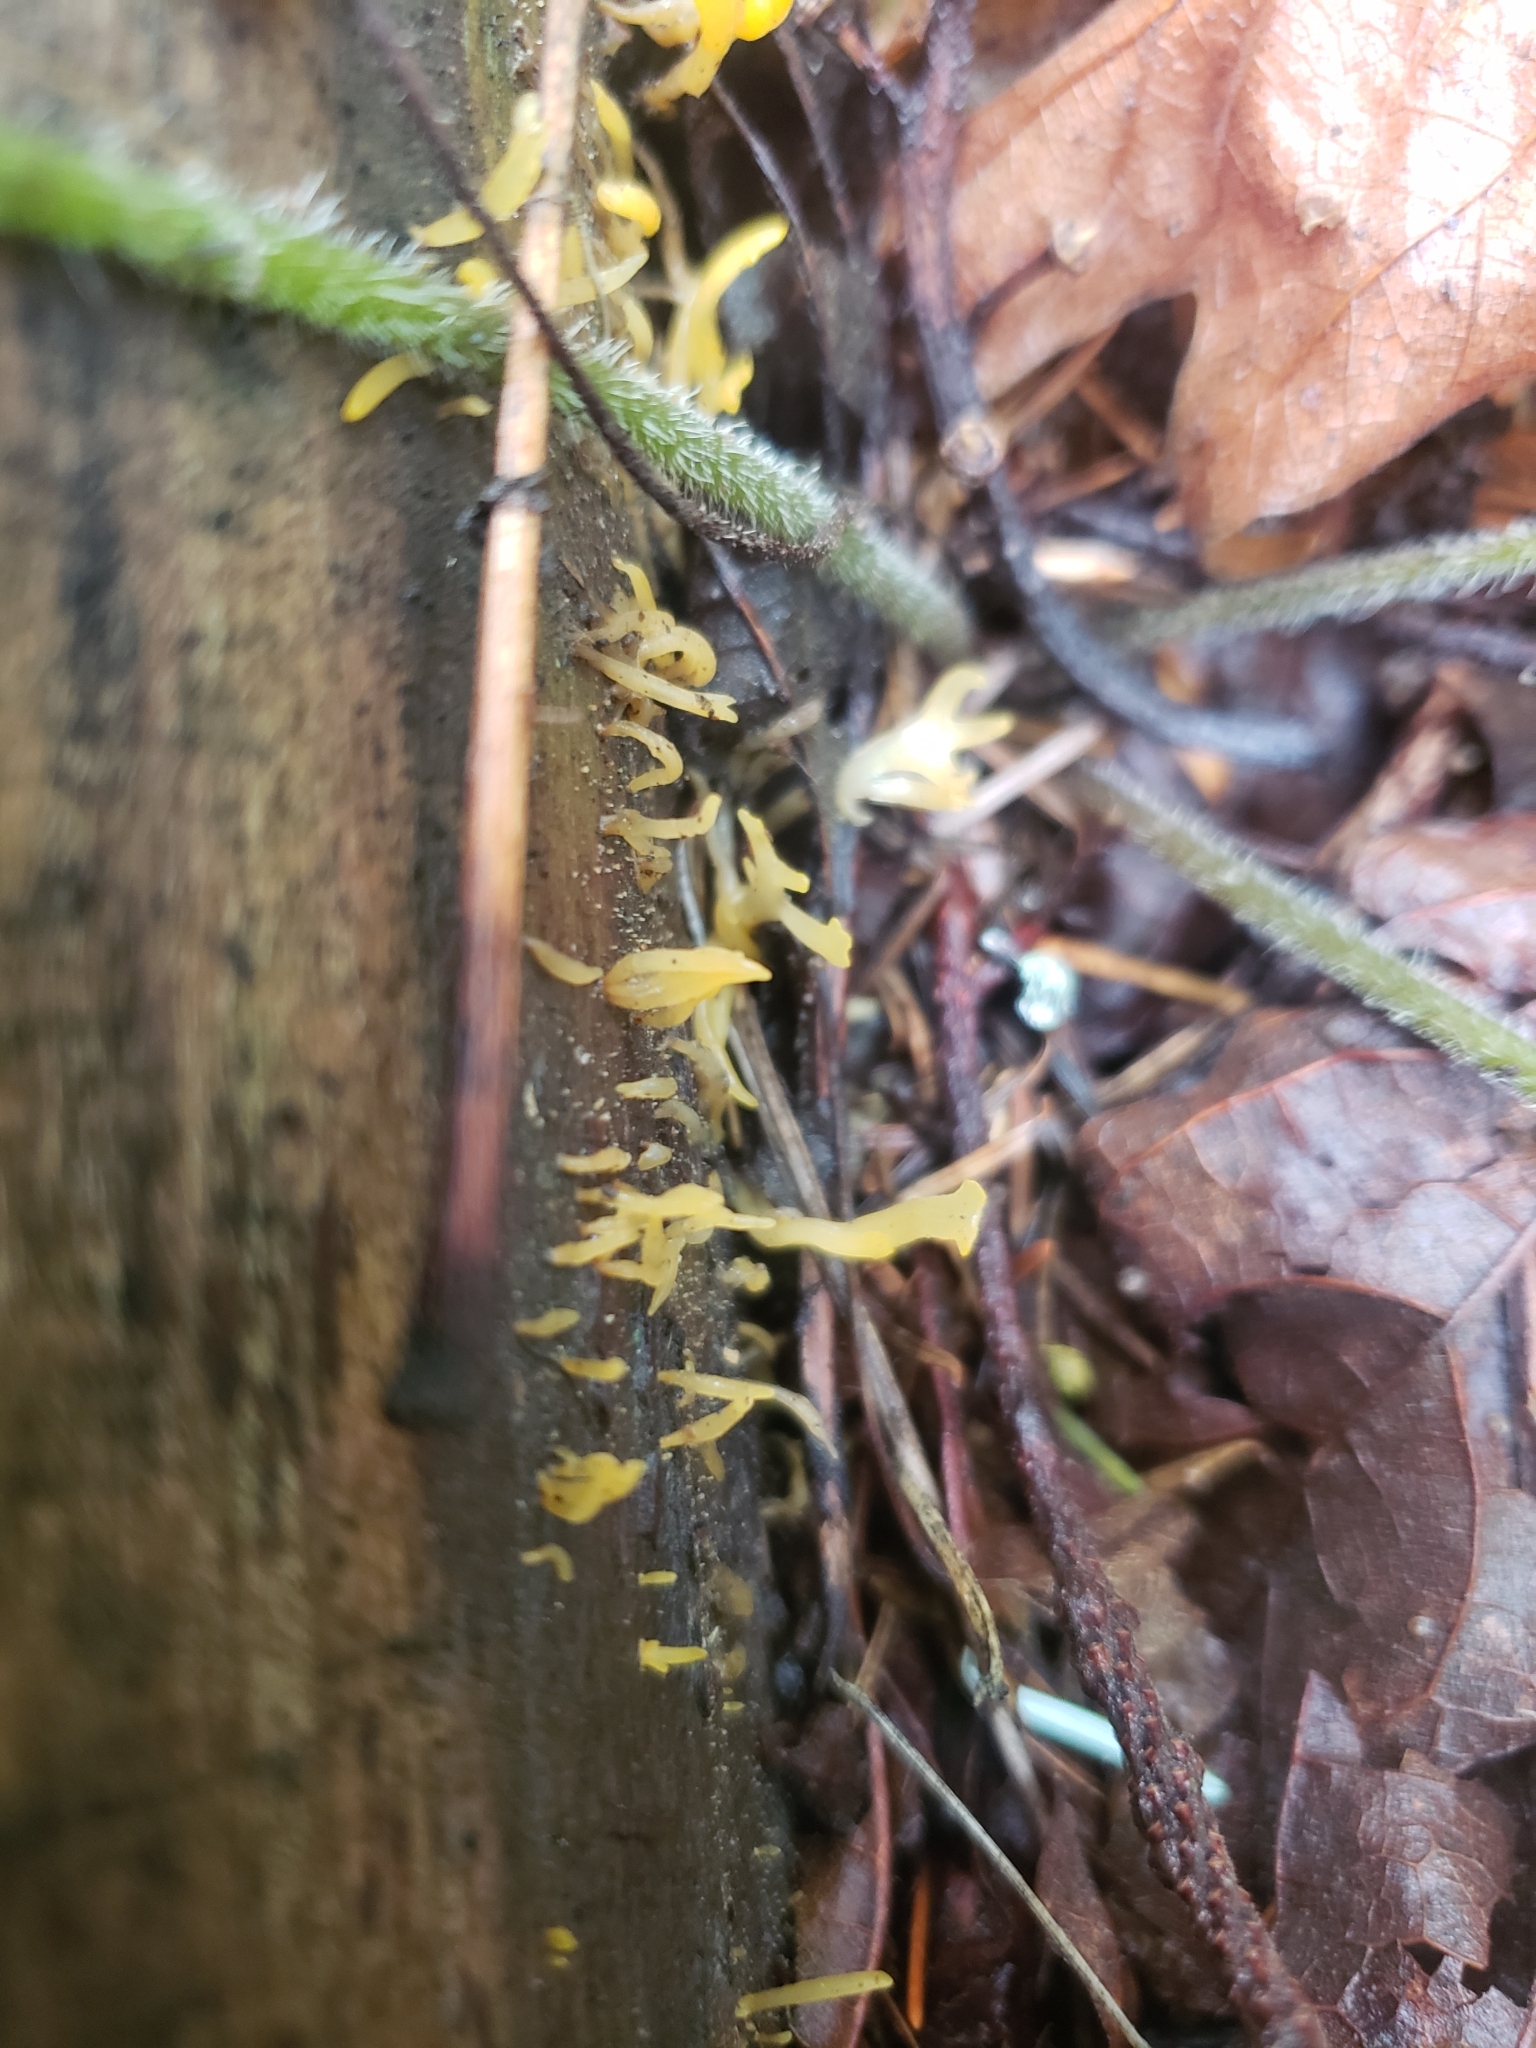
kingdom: Fungi
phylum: Basidiomycota
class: Dacrymycetes
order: Dacrymycetales
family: Dacrymycetaceae
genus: Calocera
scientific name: Calocera cornea
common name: Small stagshorn
